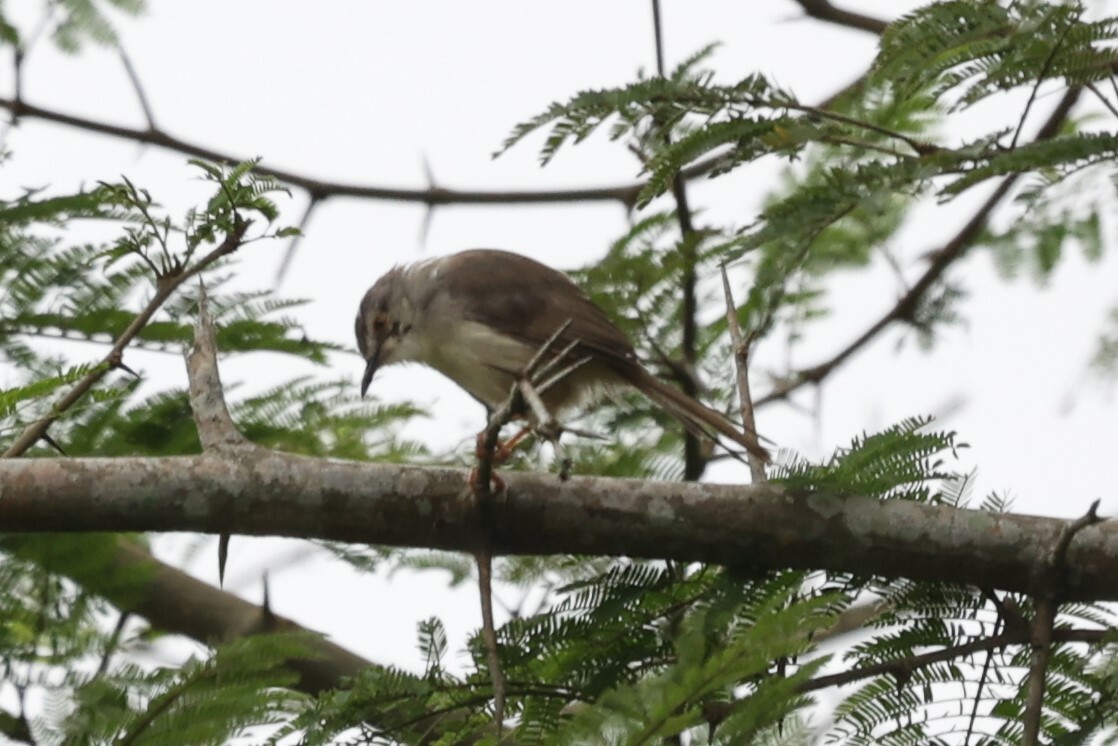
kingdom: Animalia
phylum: Chordata
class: Aves
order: Passeriformes
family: Cisticolidae
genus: Prinia
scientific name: Prinia subflava
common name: Tawny-flanked prinia
